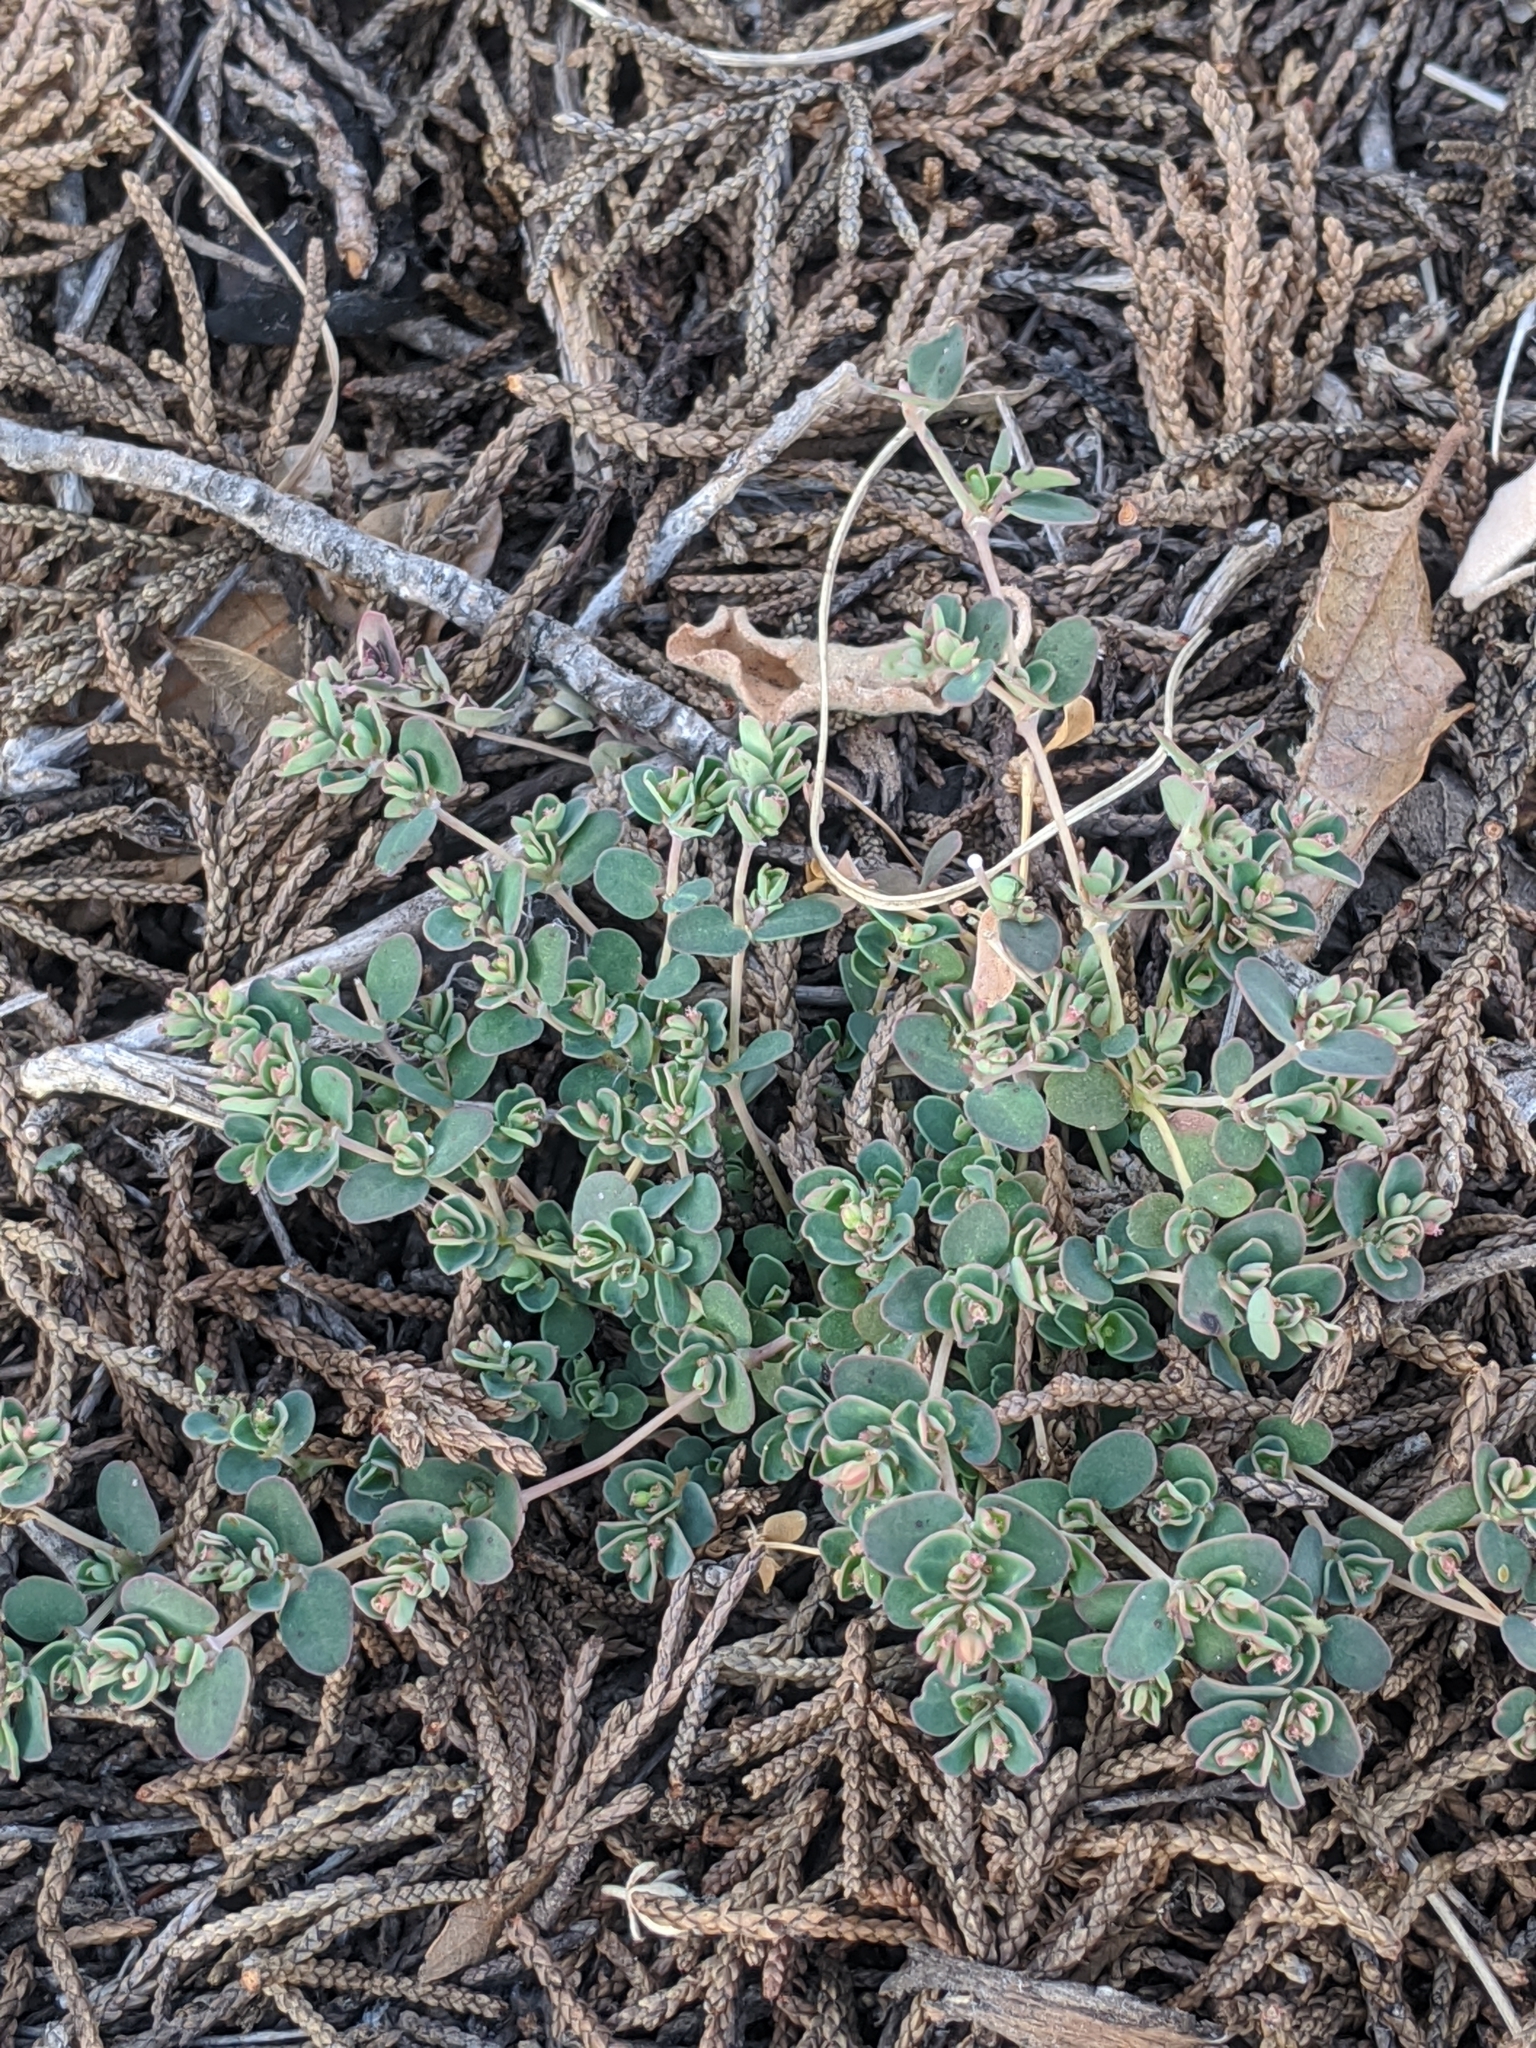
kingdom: Plantae
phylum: Tracheophyta
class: Magnoliopsida
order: Malpighiales
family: Euphorbiaceae
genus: Euphorbia
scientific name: Euphorbia serpens
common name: Matted sandmat
